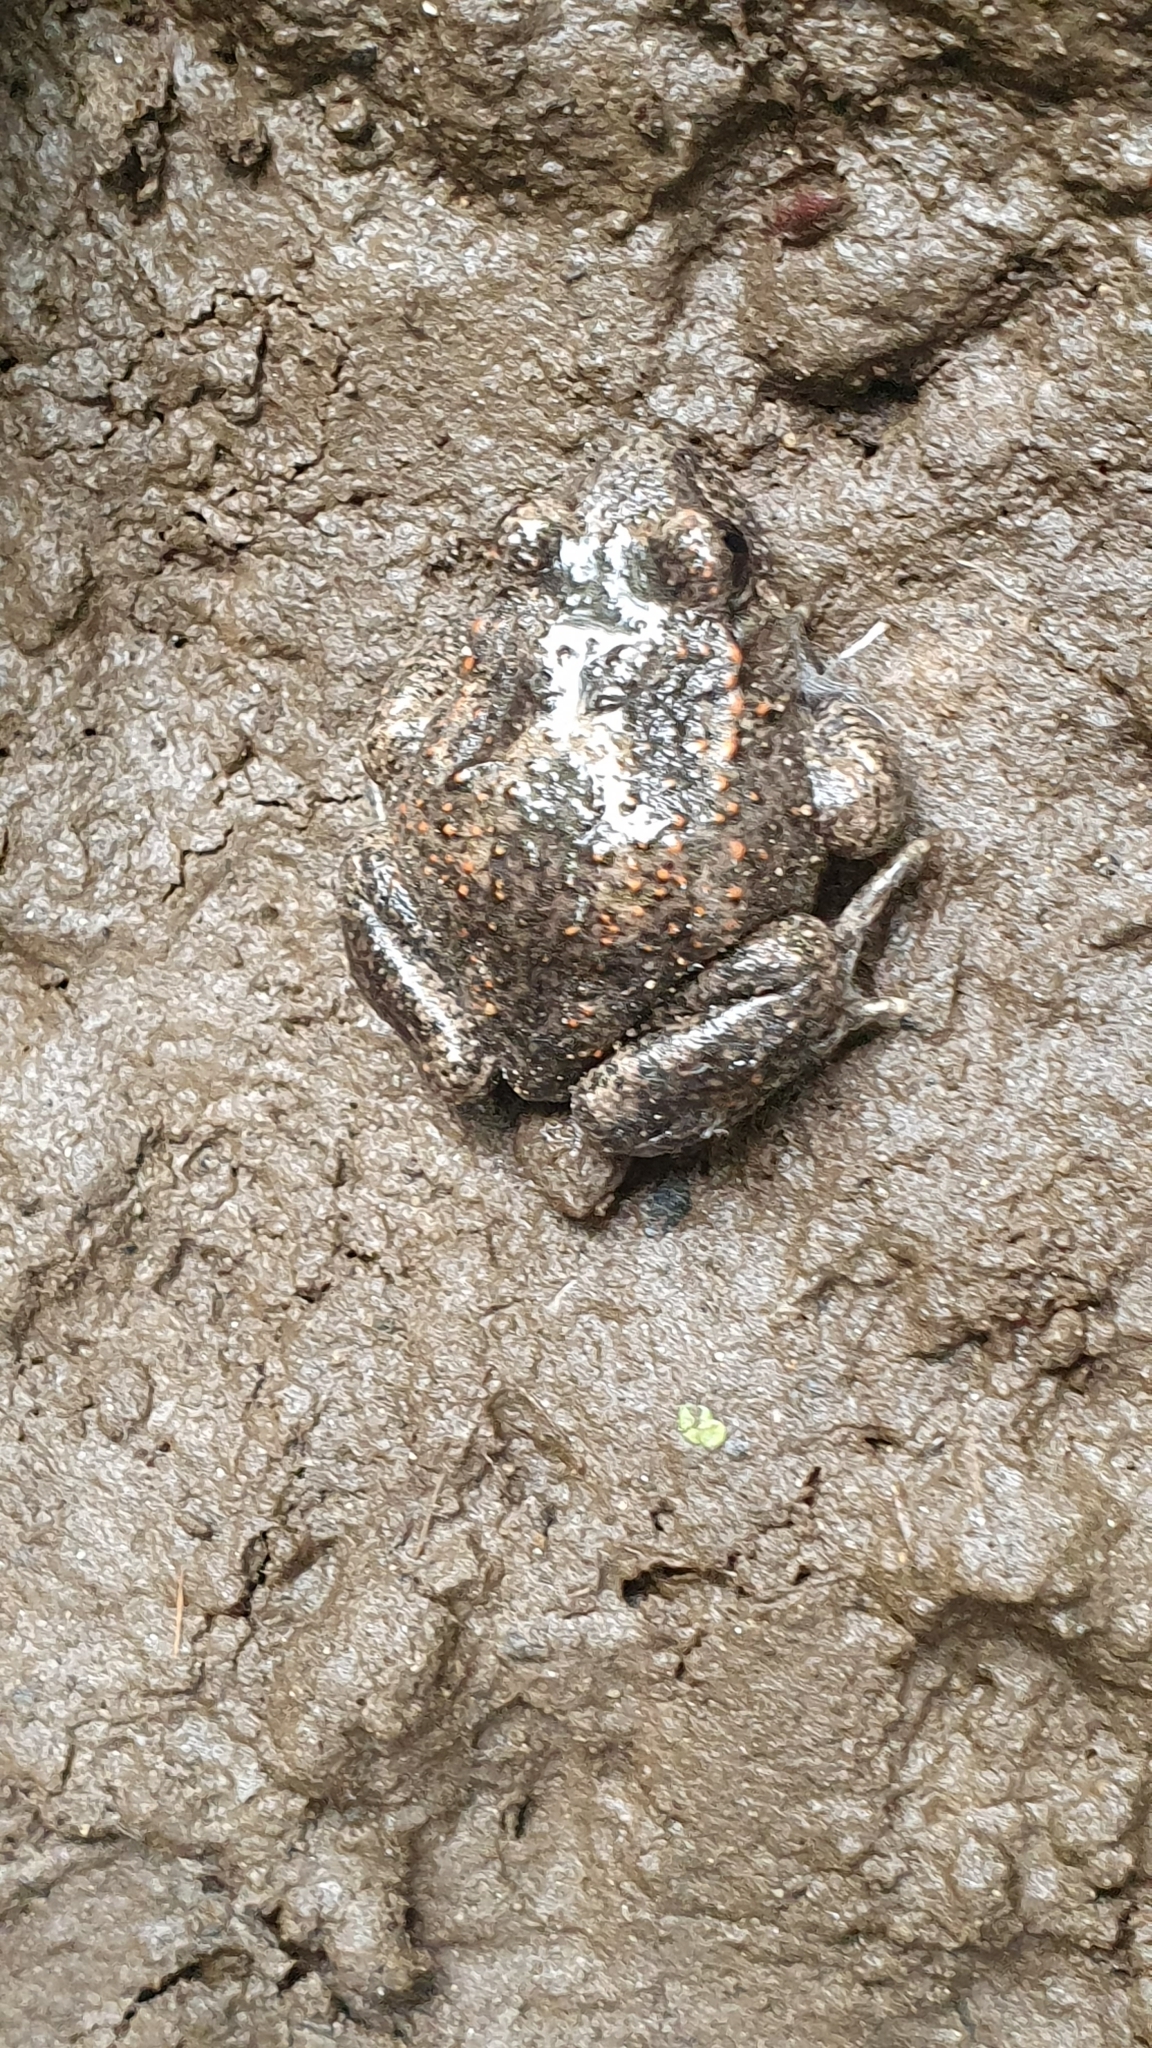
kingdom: Animalia
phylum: Chordata
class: Amphibia
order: Anura
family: Alytidae
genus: Alytes
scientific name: Alytes obstetricans
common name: Midwife toad
